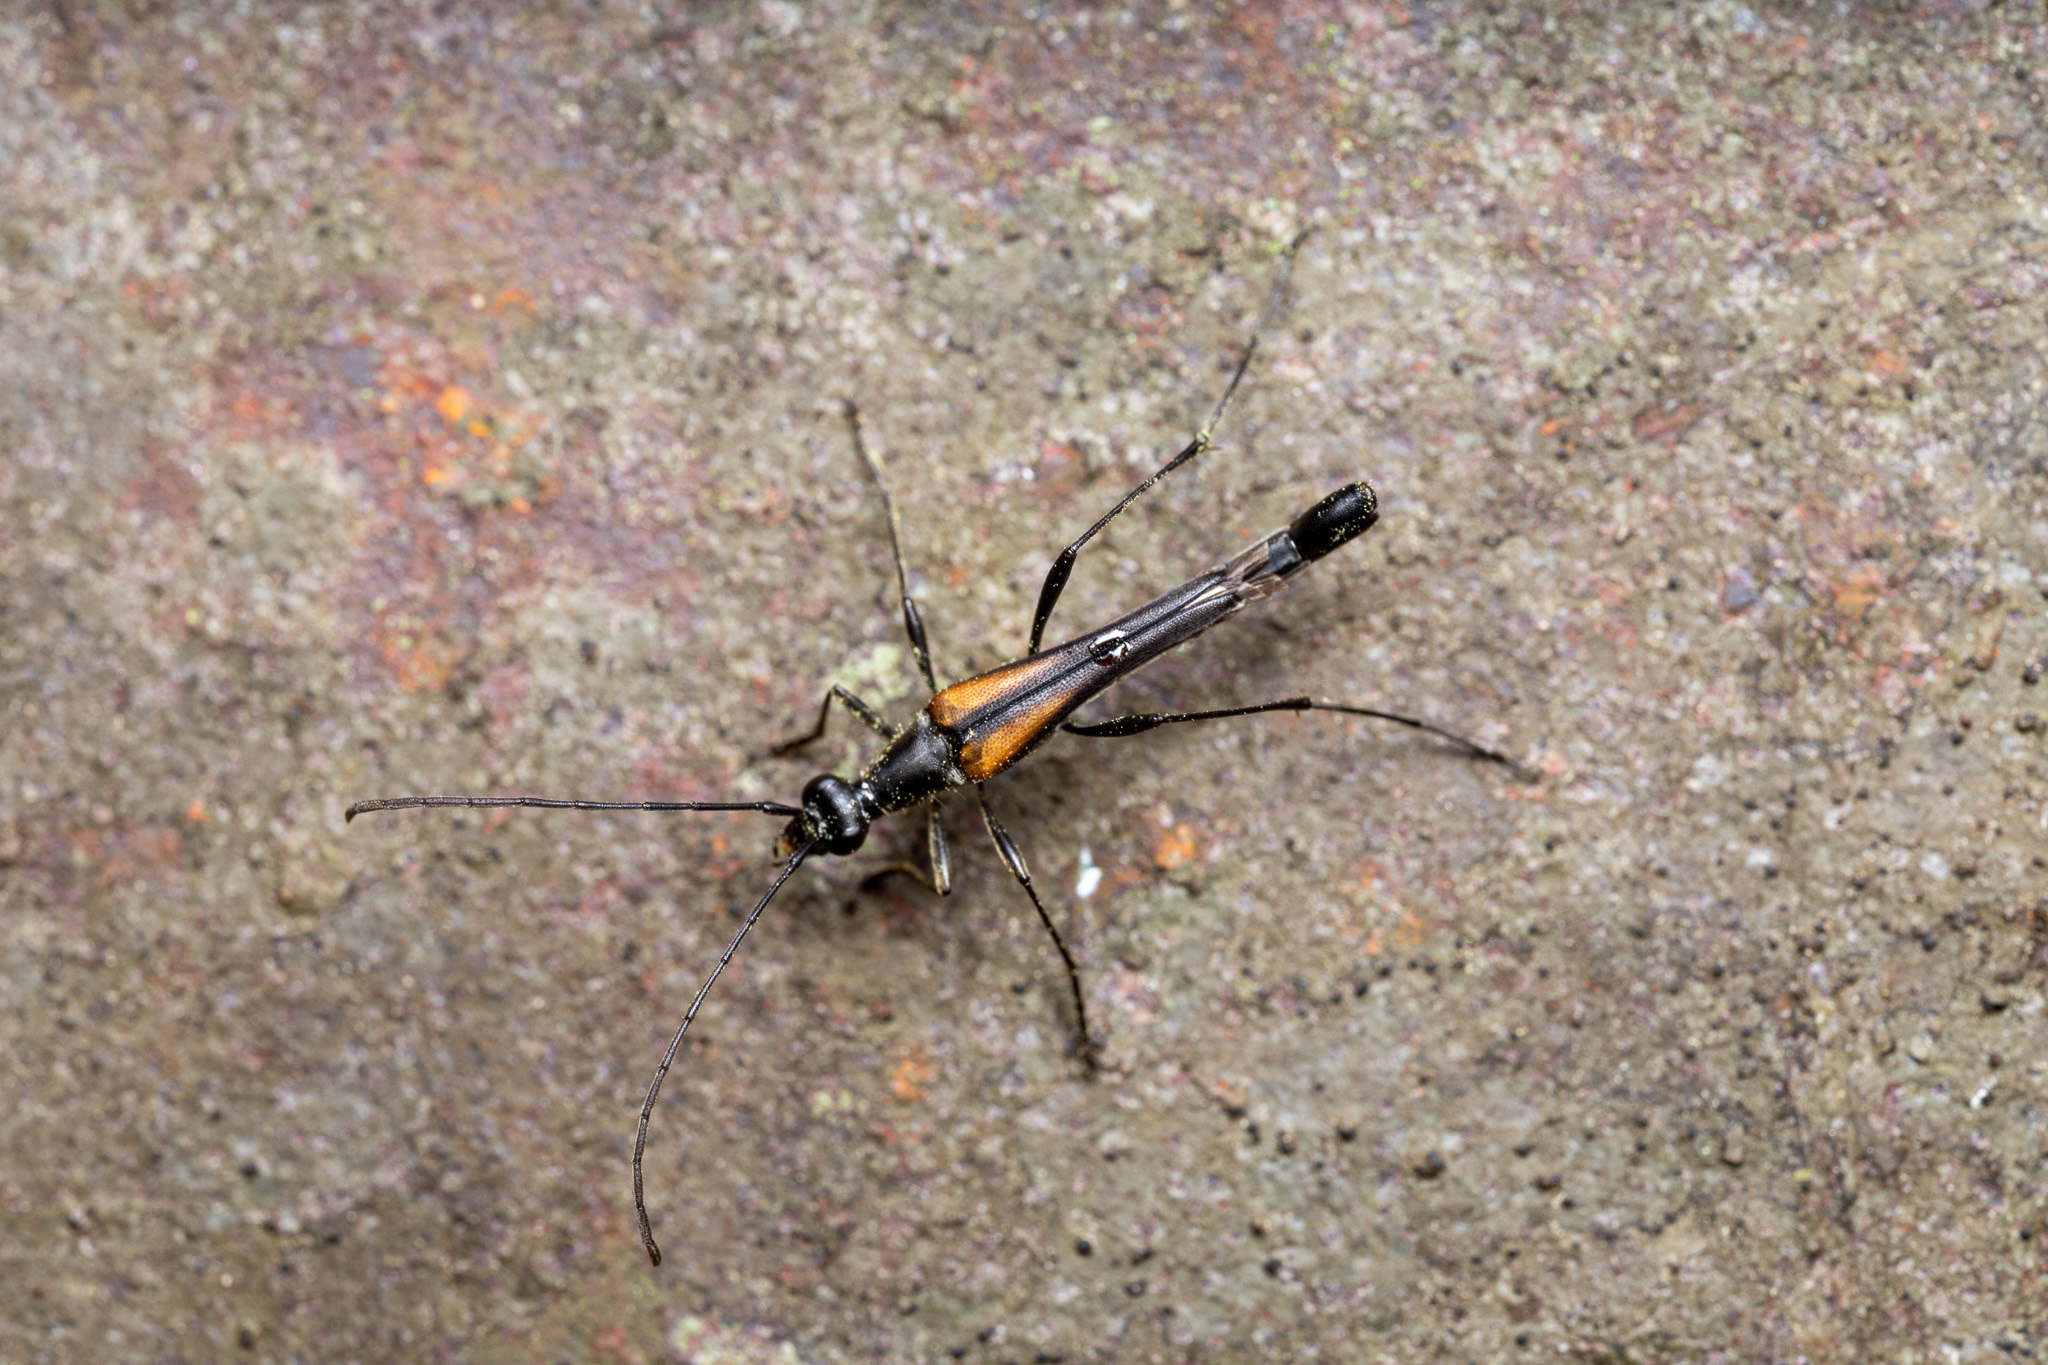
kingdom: Animalia
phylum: Arthropoda
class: Insecta
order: Coleoptera
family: Cerambycidae
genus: Strangalia
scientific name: Strangalia famelica
